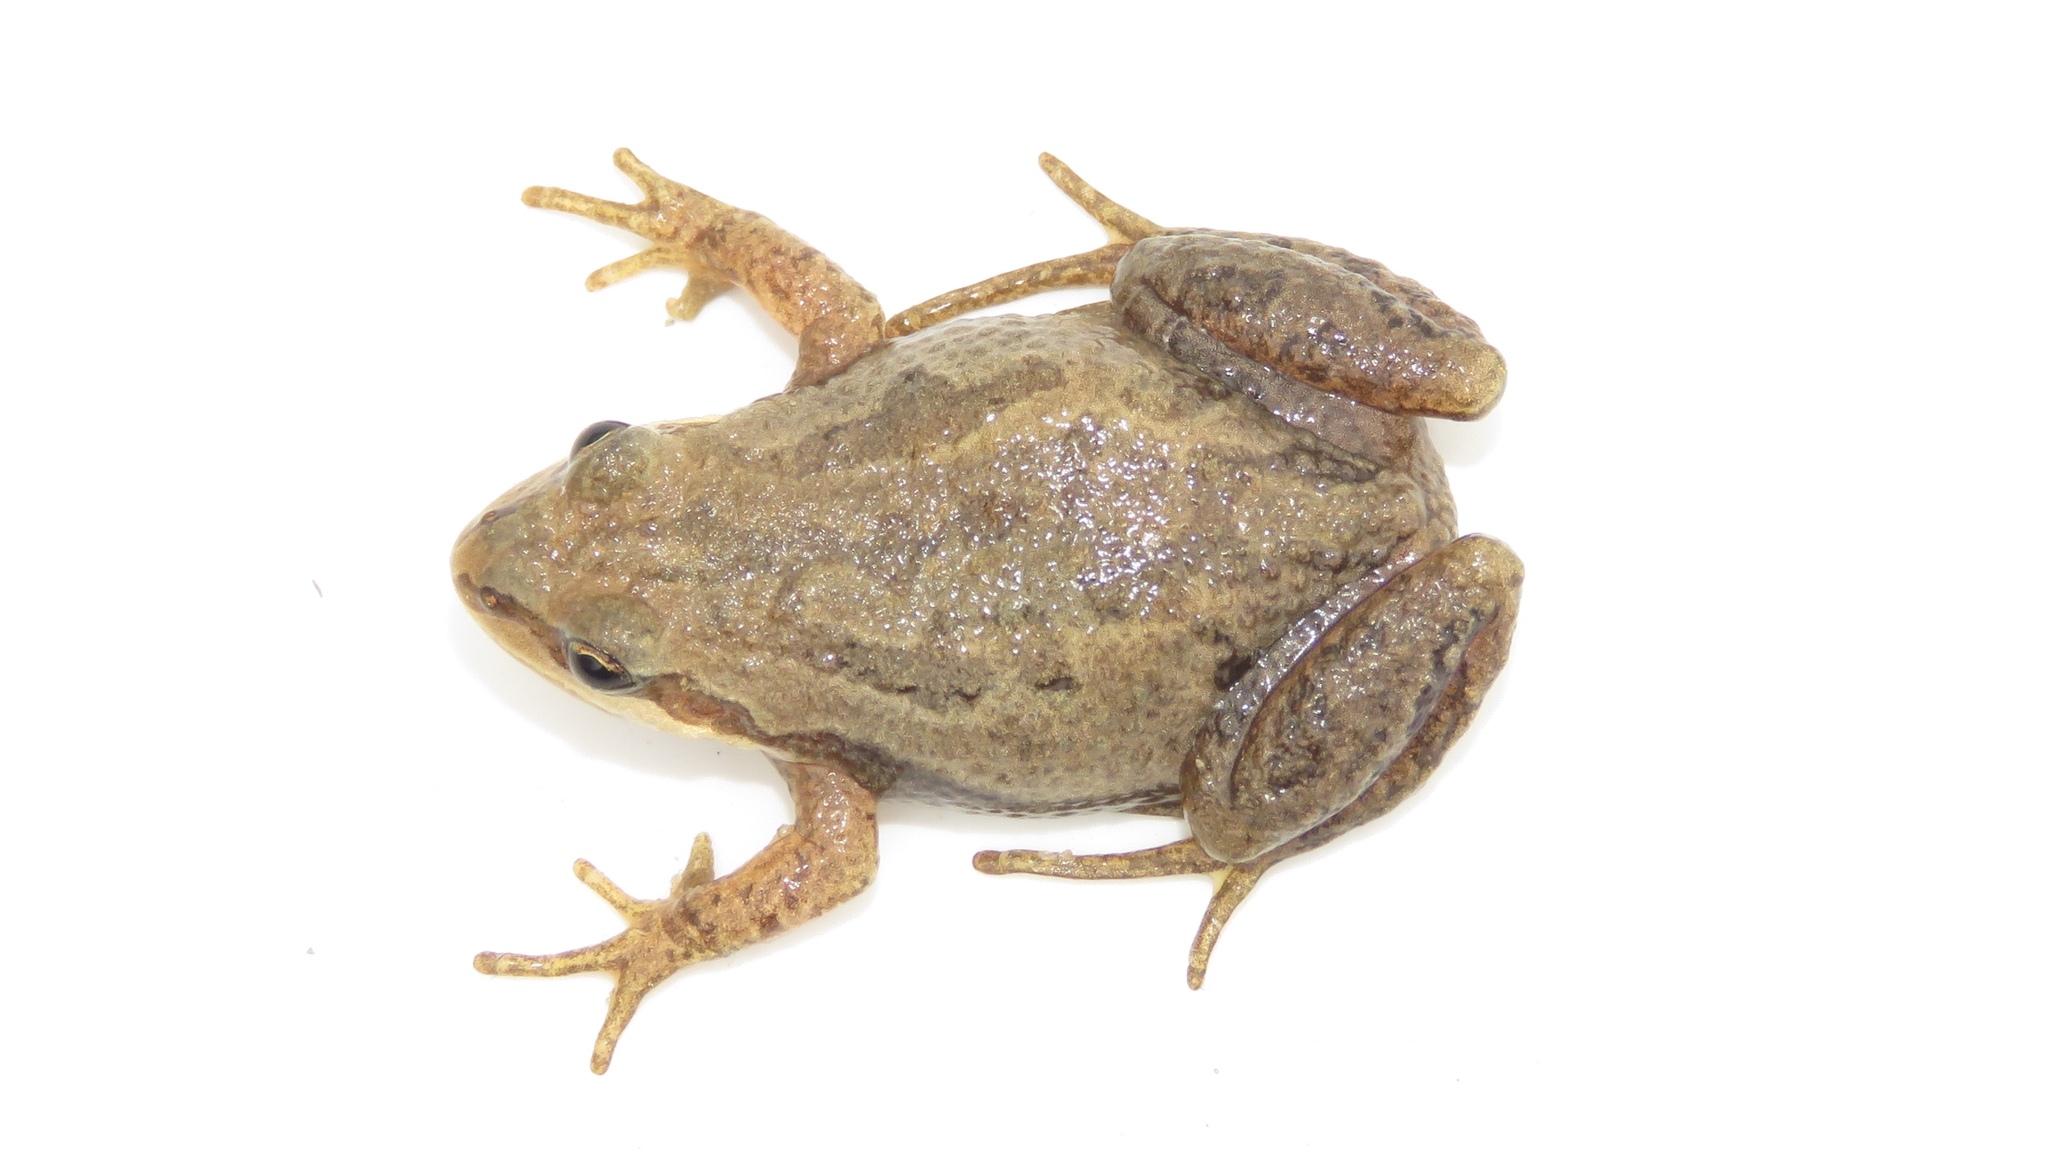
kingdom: Animalia
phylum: Chordata
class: Amphibia
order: Anura
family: Hylidae
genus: Pseudacris
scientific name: Pseudacris maculata
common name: Boreal chorus frog
